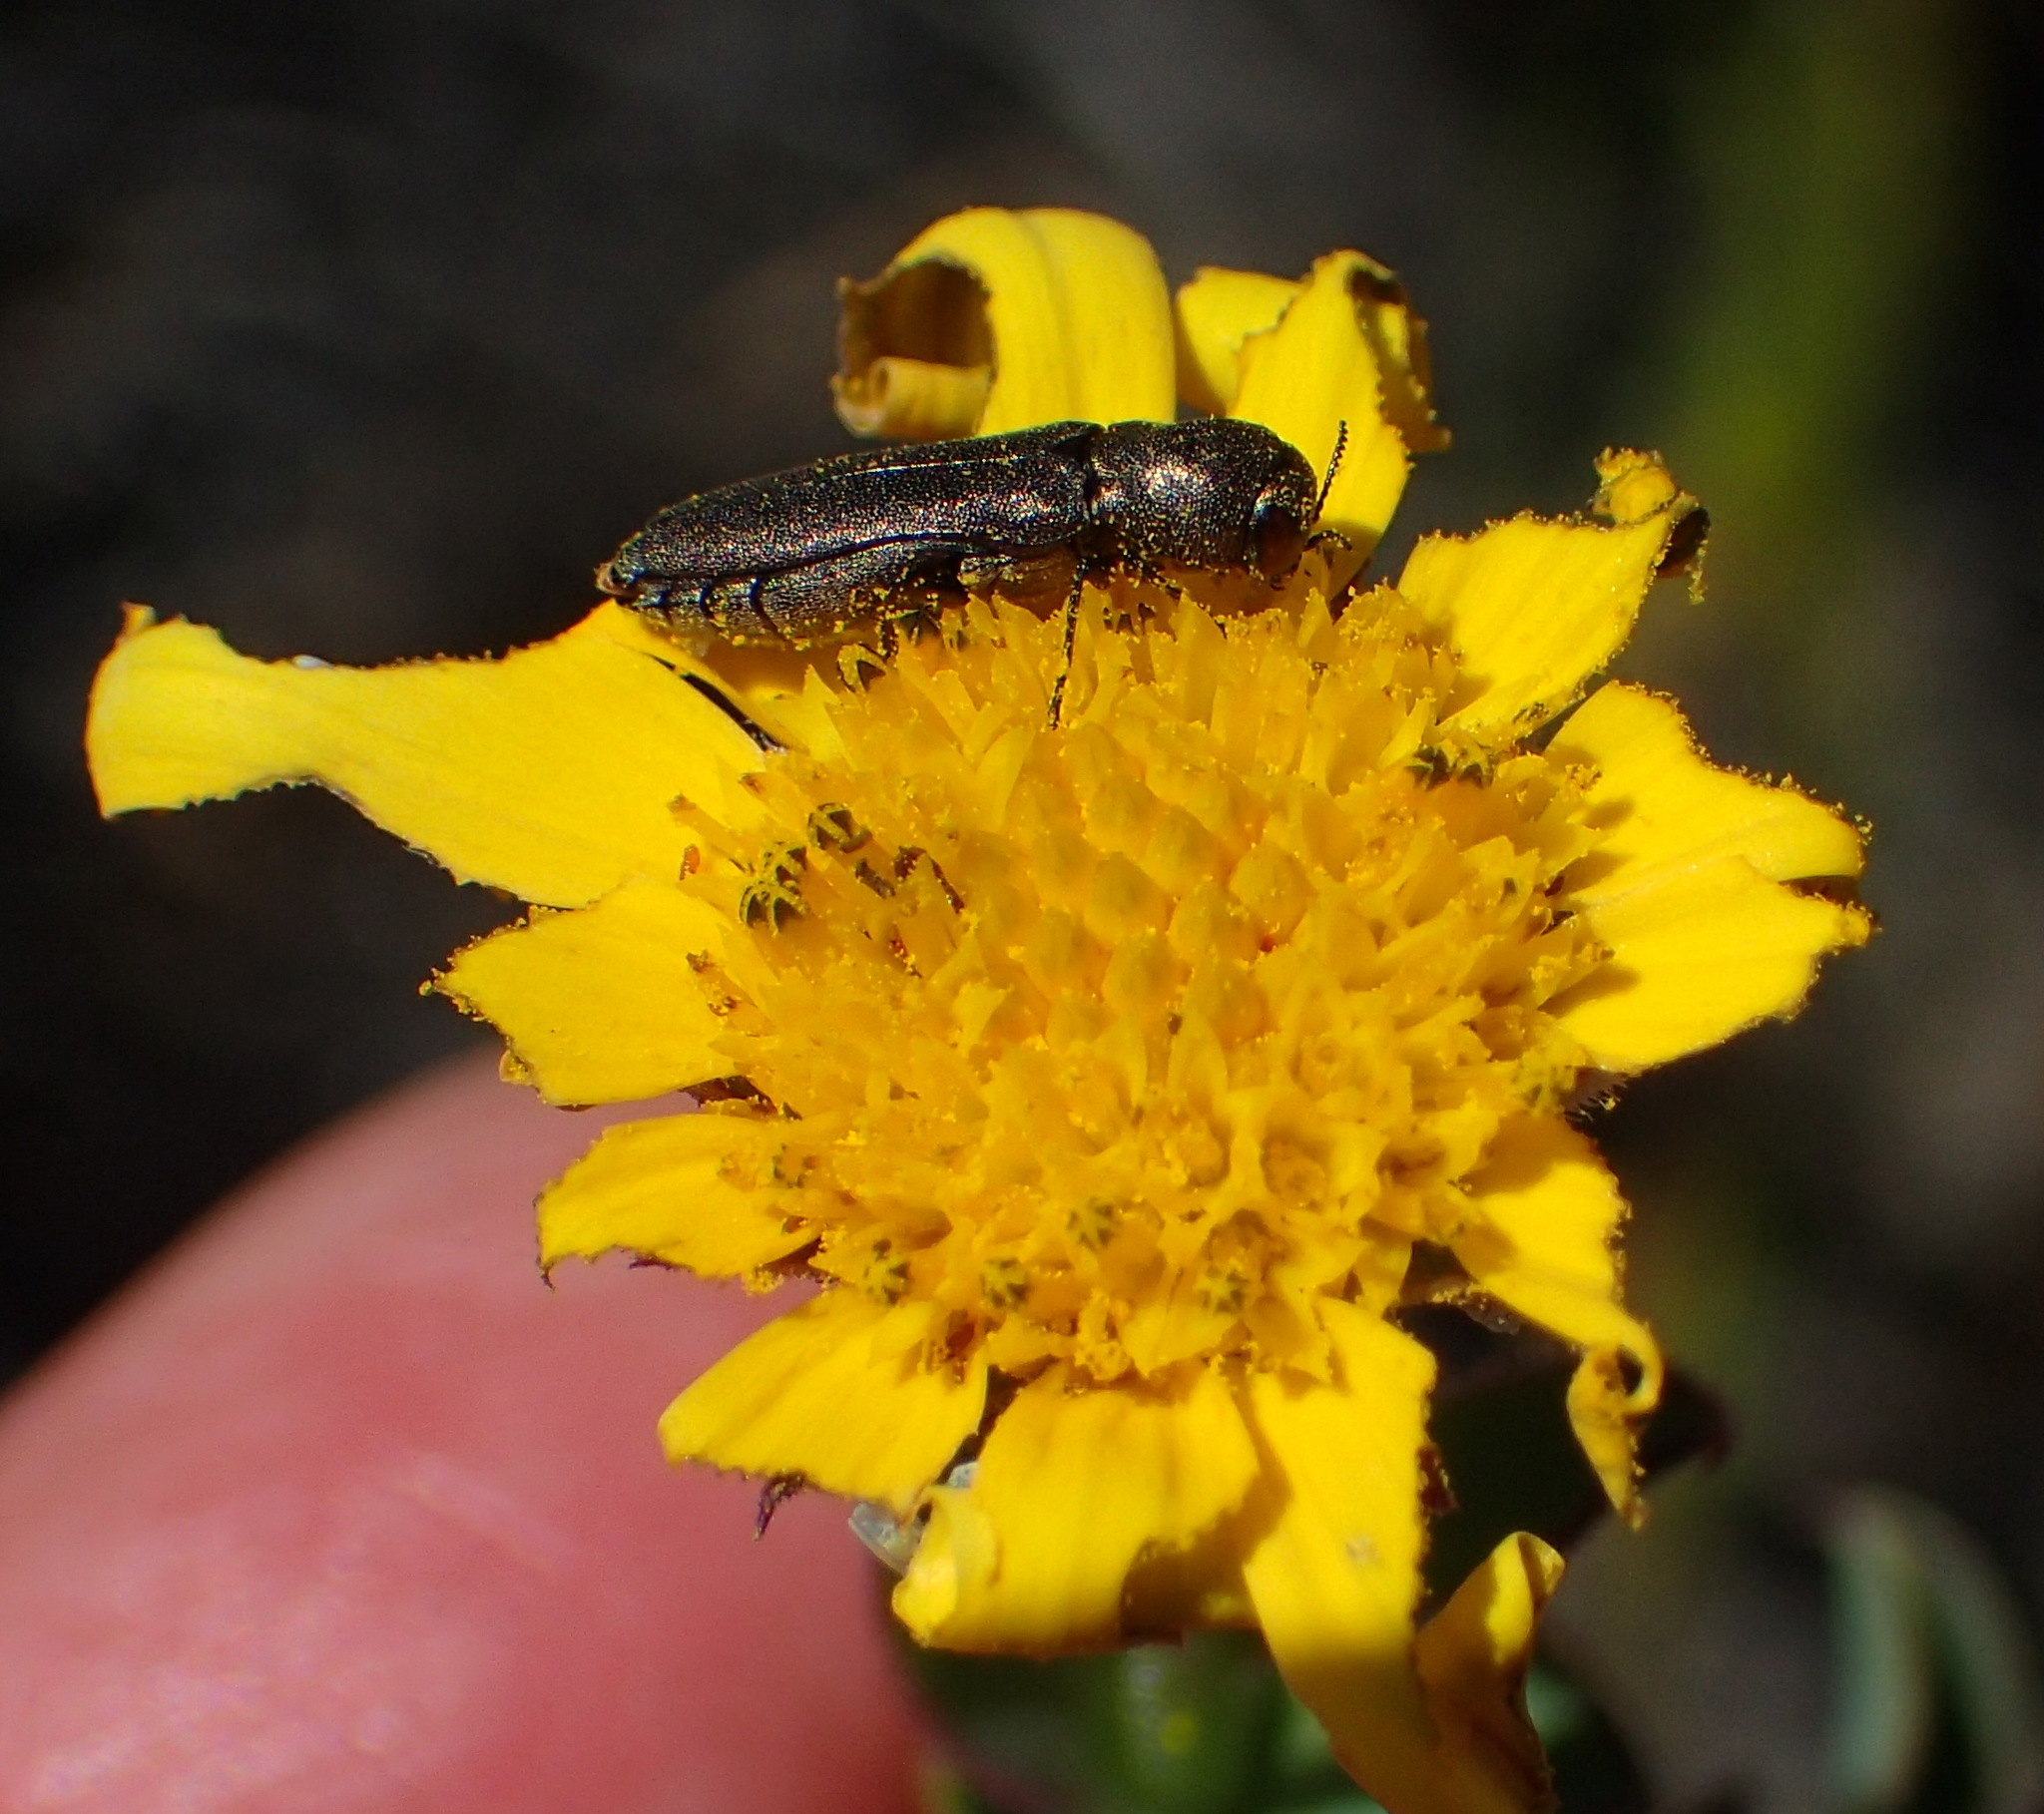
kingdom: Plantae
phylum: Tracheophyta
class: Magnoliopsida
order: Asterales
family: Asteraceae
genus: Osteospermum
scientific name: Osteospermum polygaloides
